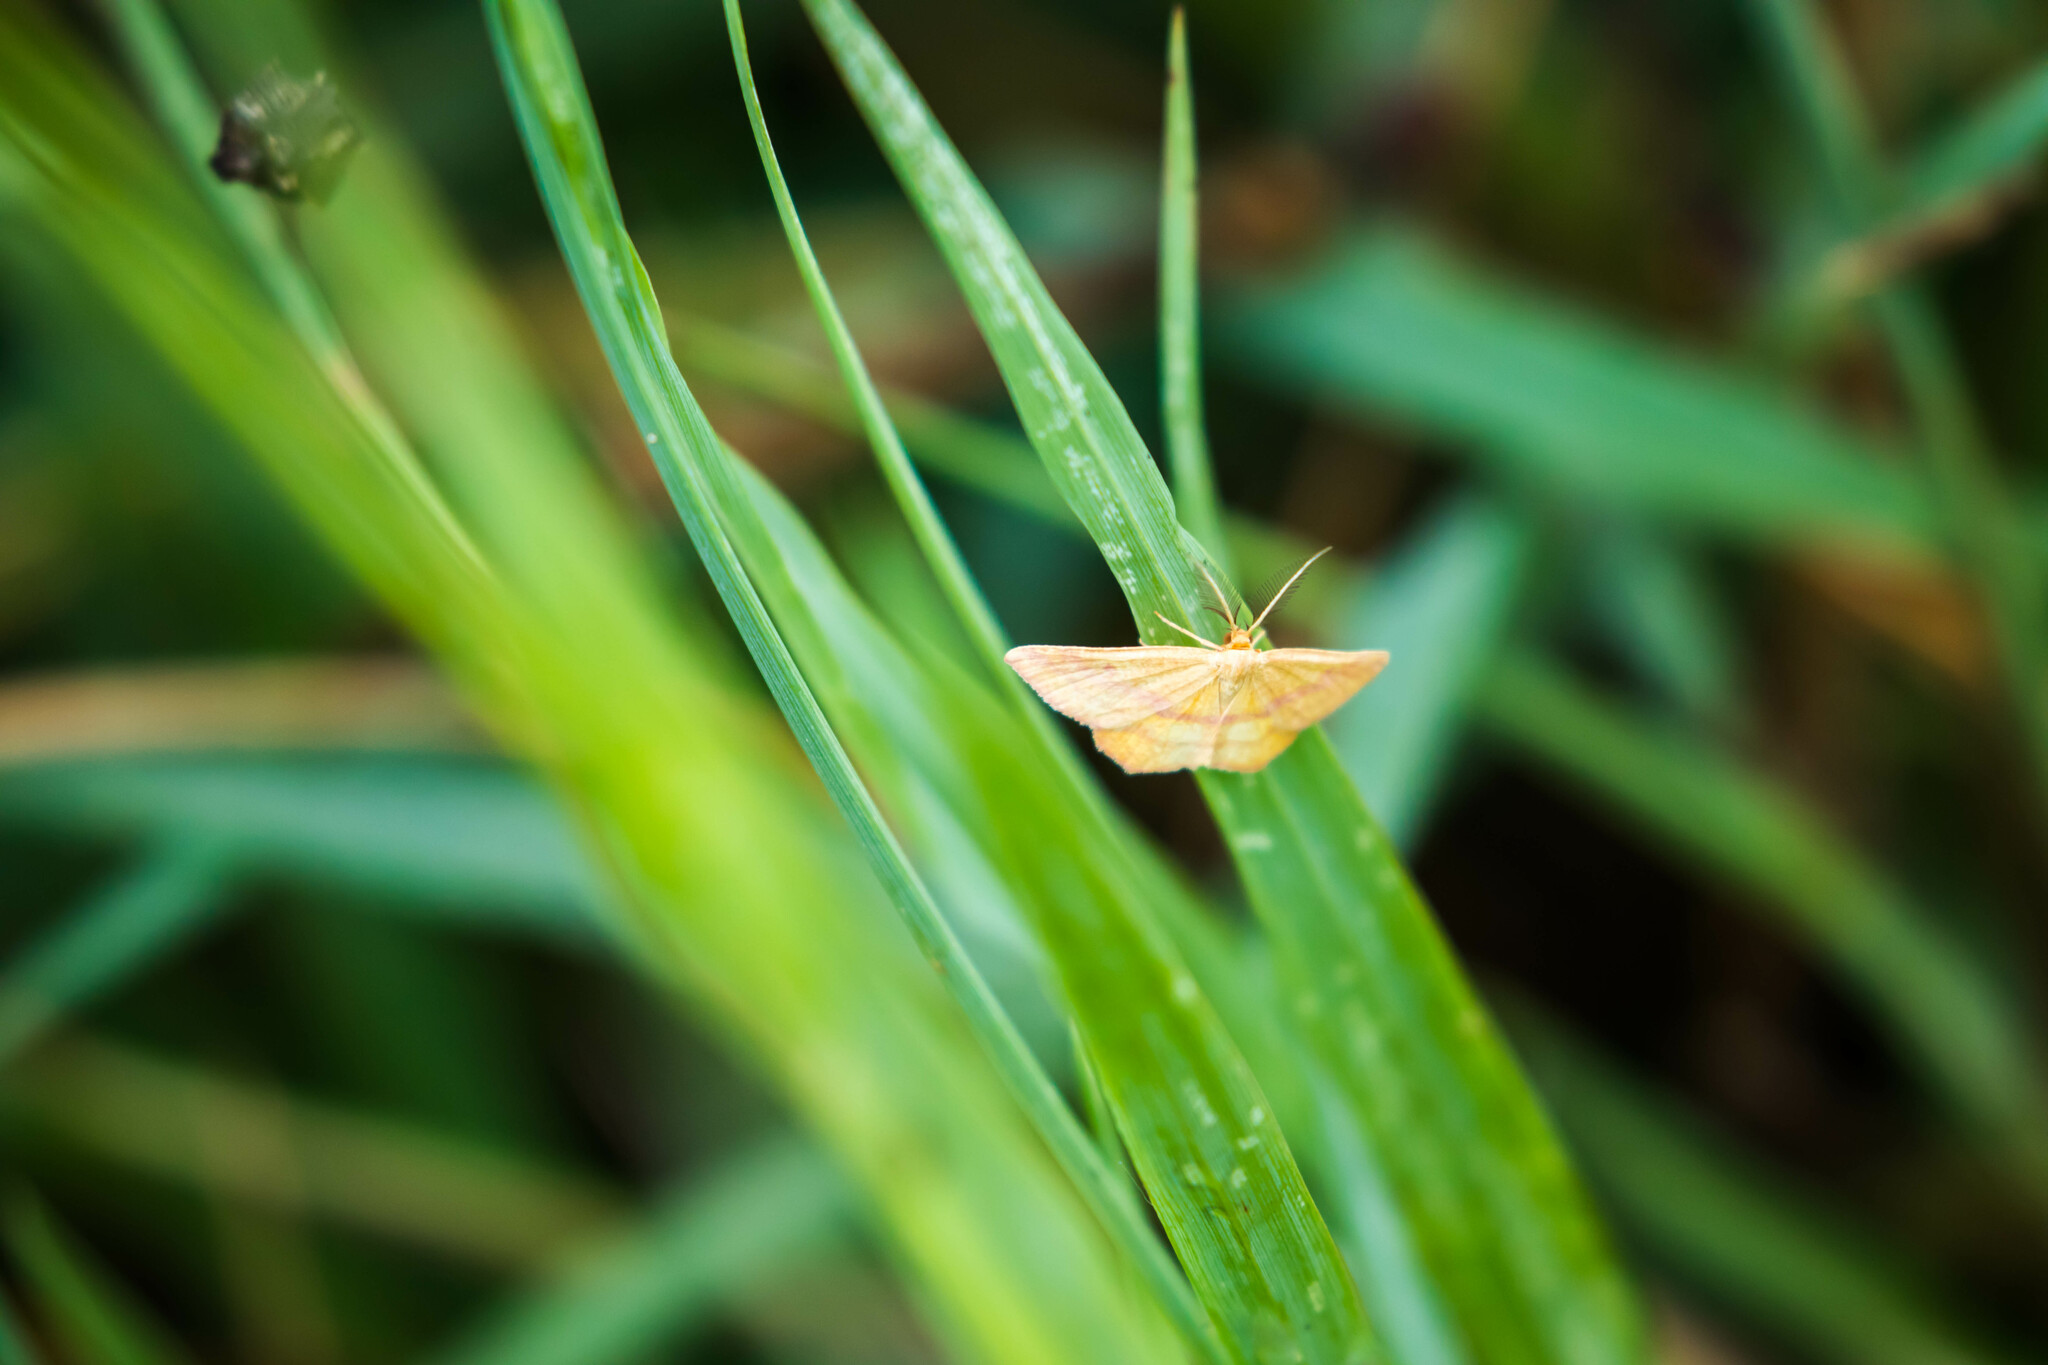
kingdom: Animalia
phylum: Arthropoda
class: Insecta
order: Lepidoptera
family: Geometridae
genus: Haematopis
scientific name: Haematopis grataria
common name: Chickweed geometer
